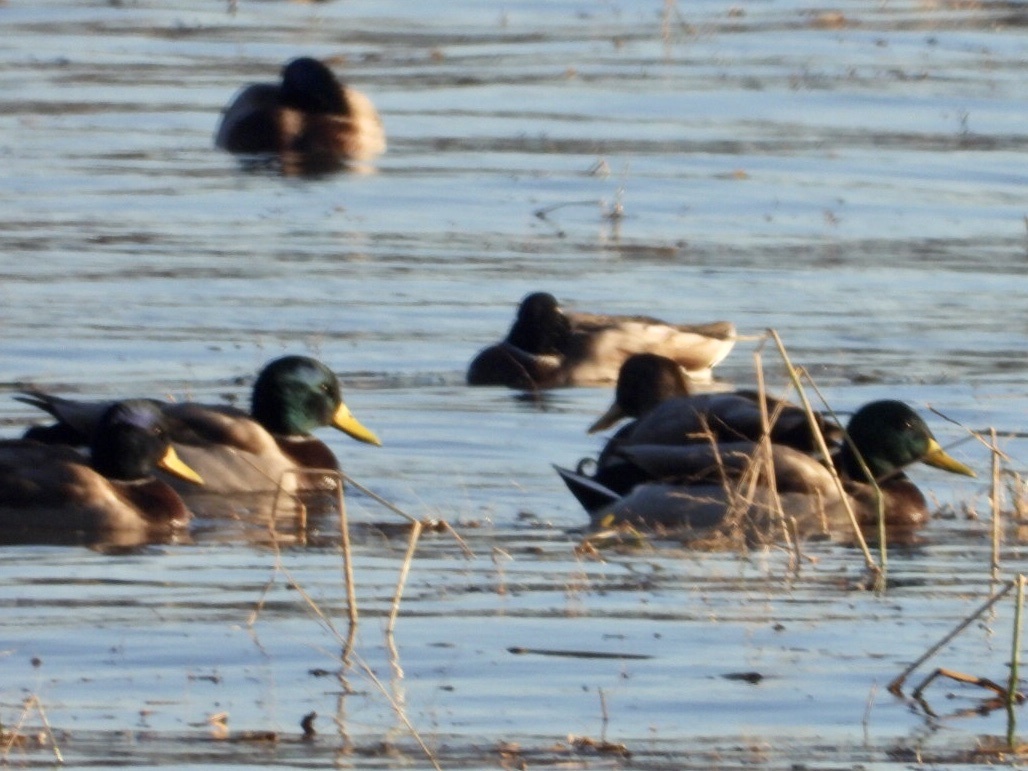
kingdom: Animalia
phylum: Chordata
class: Aves
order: Anseriformes
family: Anatidae
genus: Anas
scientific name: Anas platyrhynchos
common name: Mallard
